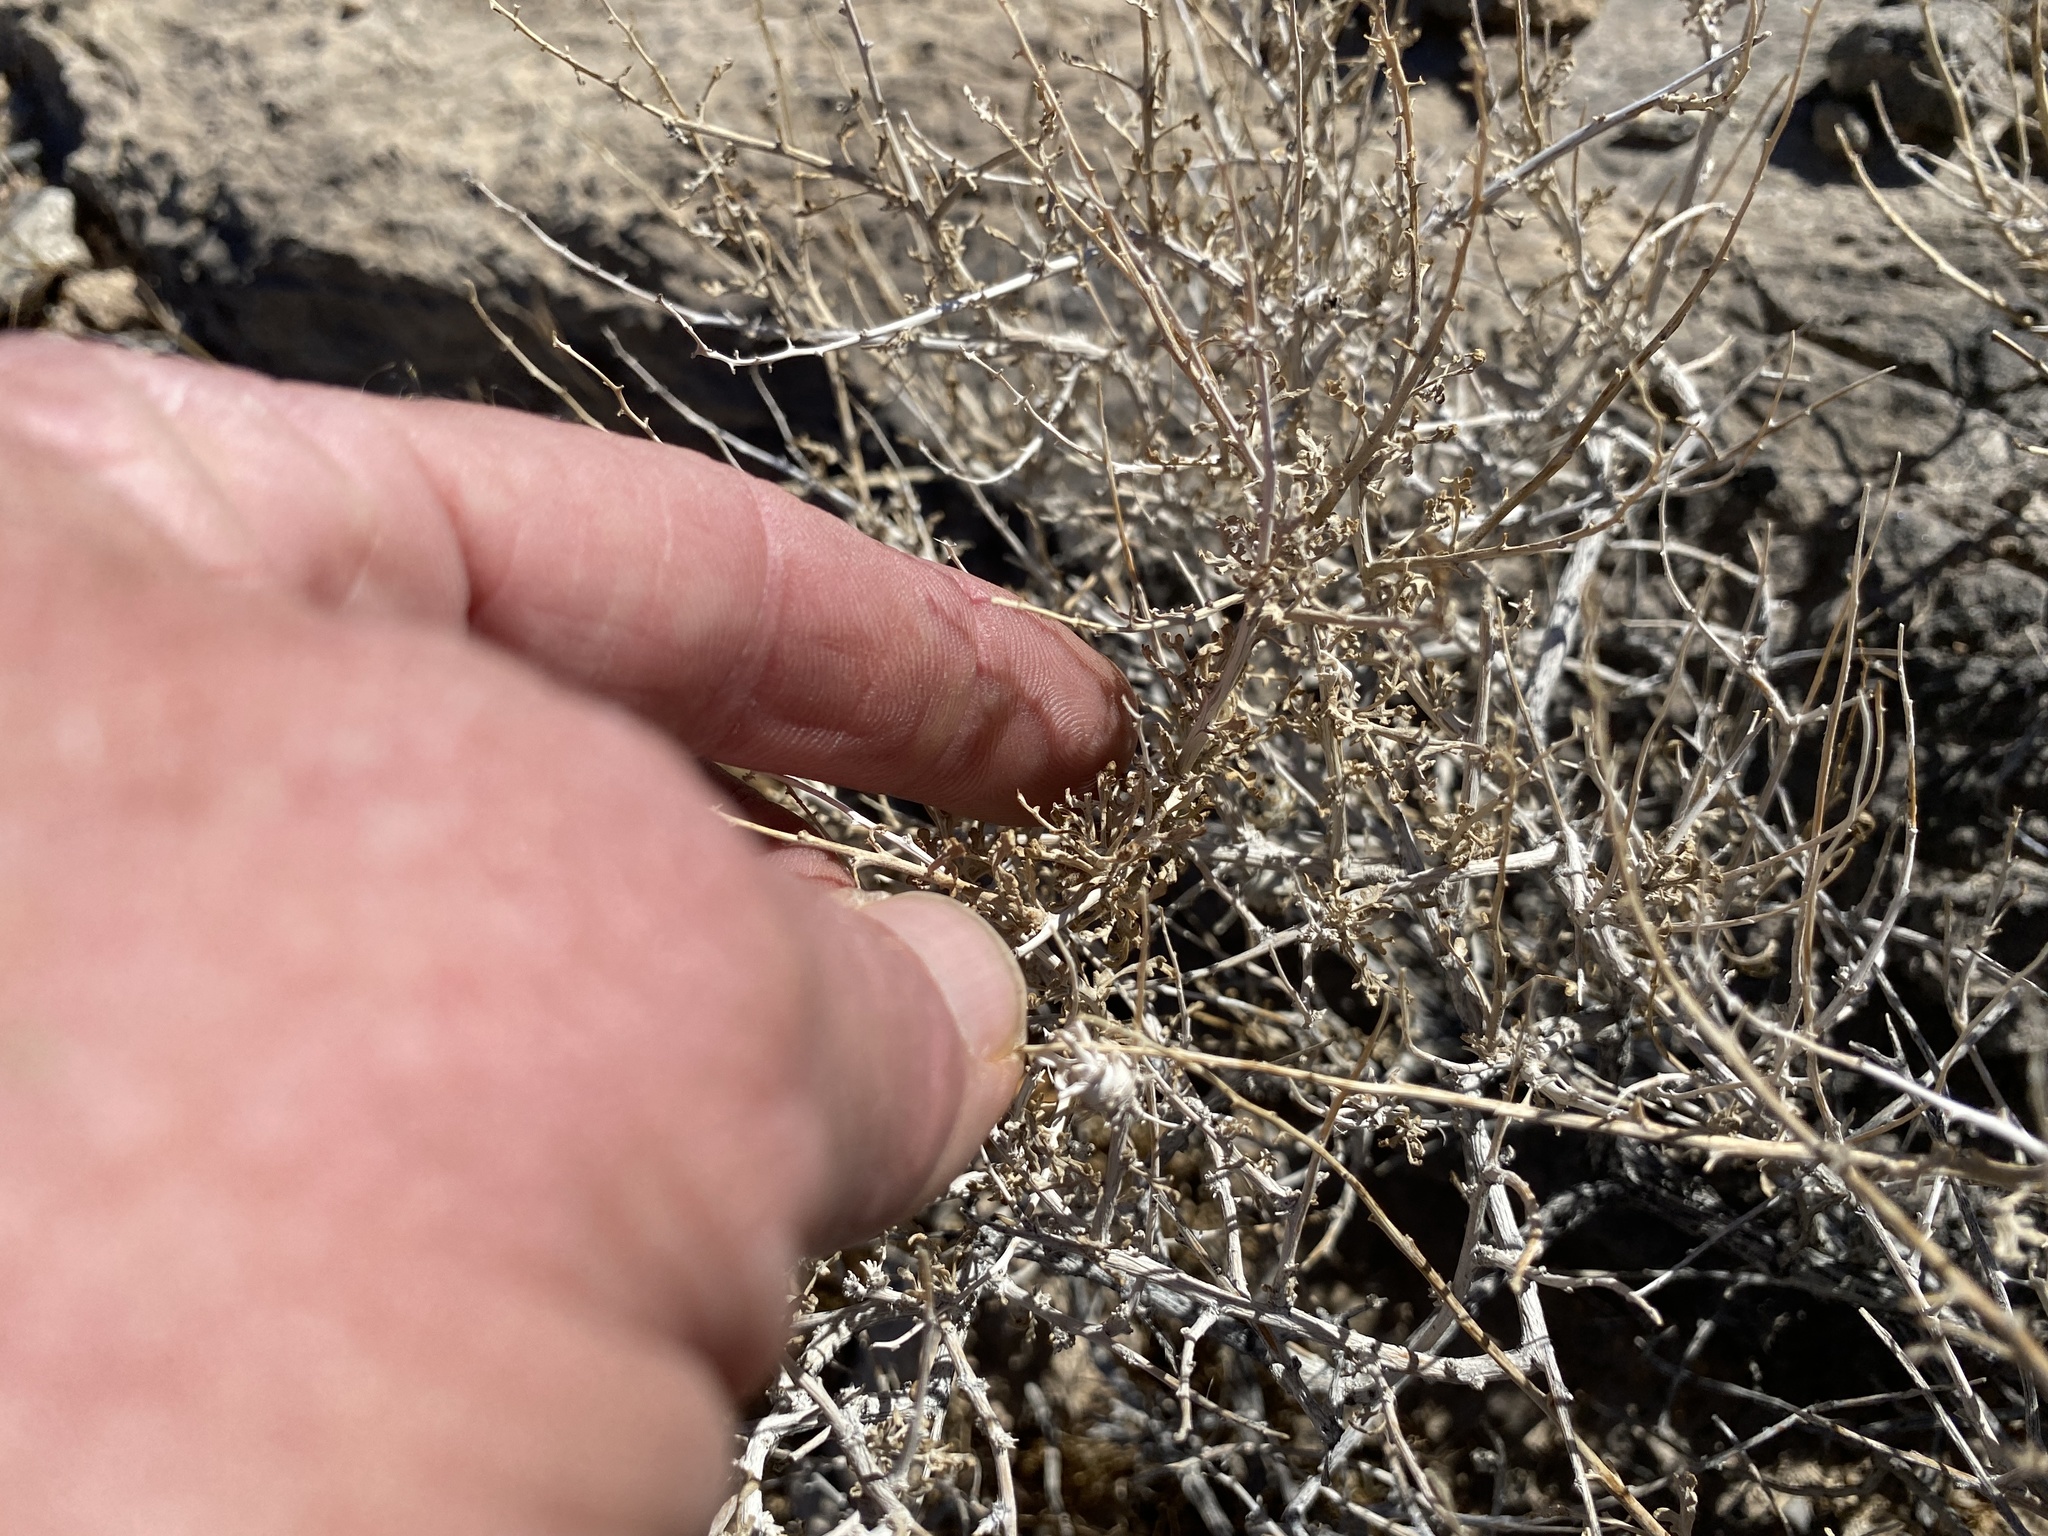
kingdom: Plantae
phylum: Tracheophyta
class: Magnoliopsida
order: Asterales
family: Asteraceae
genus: Ambrosia
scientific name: Ambrosia dumosa
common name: Bur-sage
